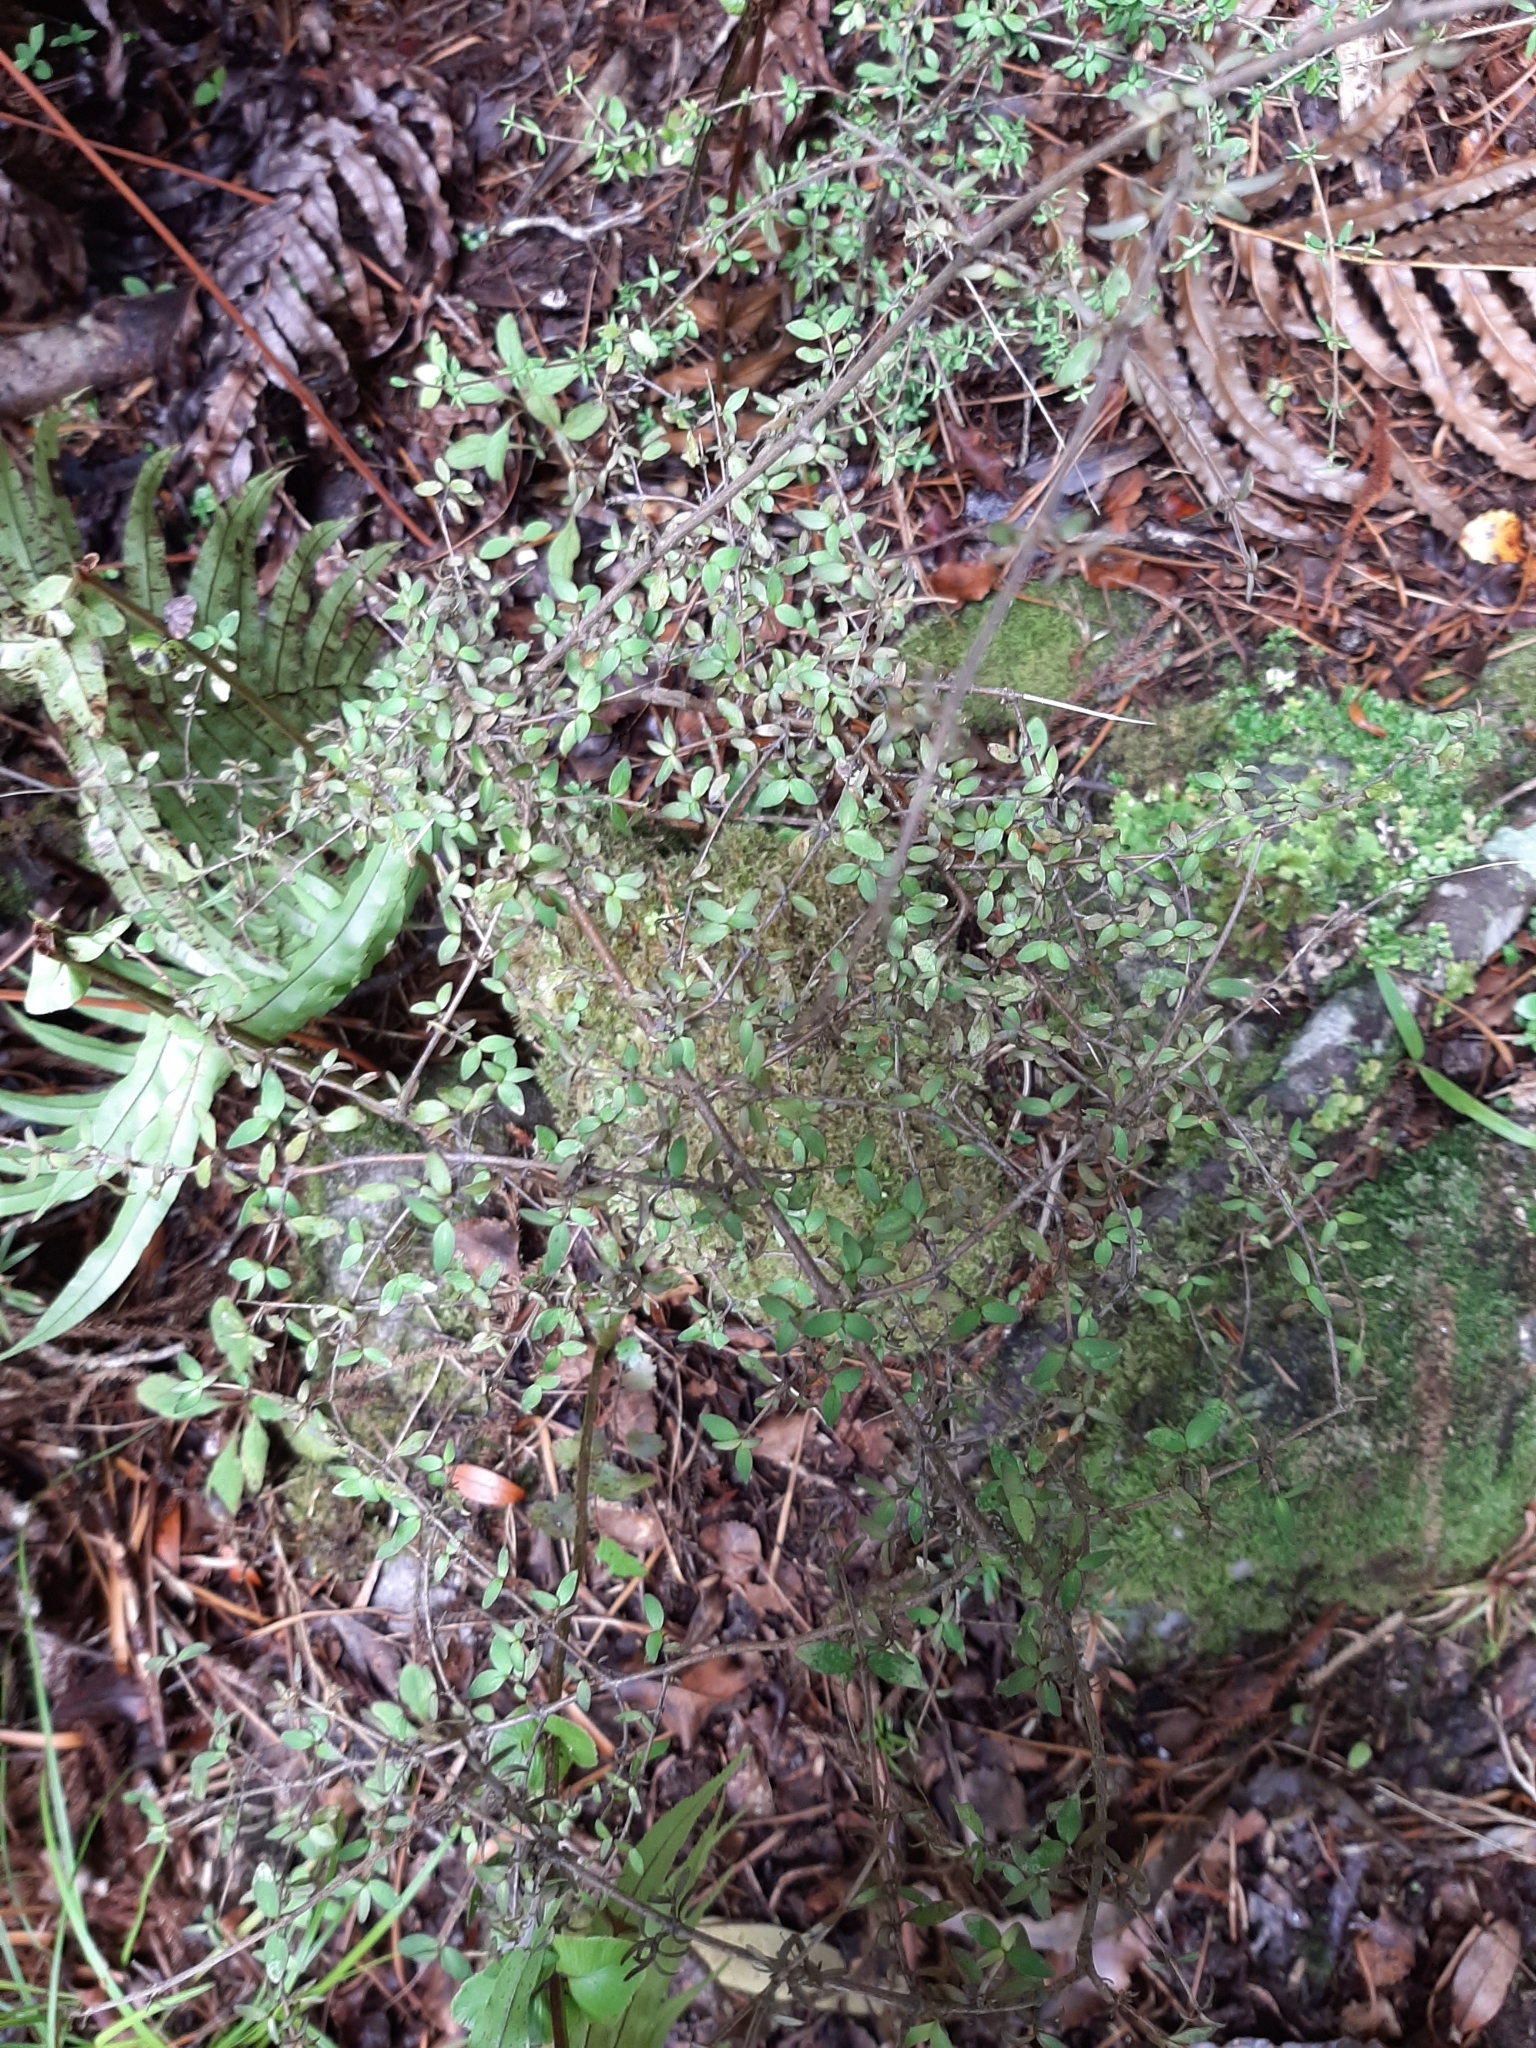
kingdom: Plantae
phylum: Tracheophyta
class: Magnoliopsida
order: Gentianales
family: Rubiaceae
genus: Coprosma
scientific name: Coprosma rhamnoides
